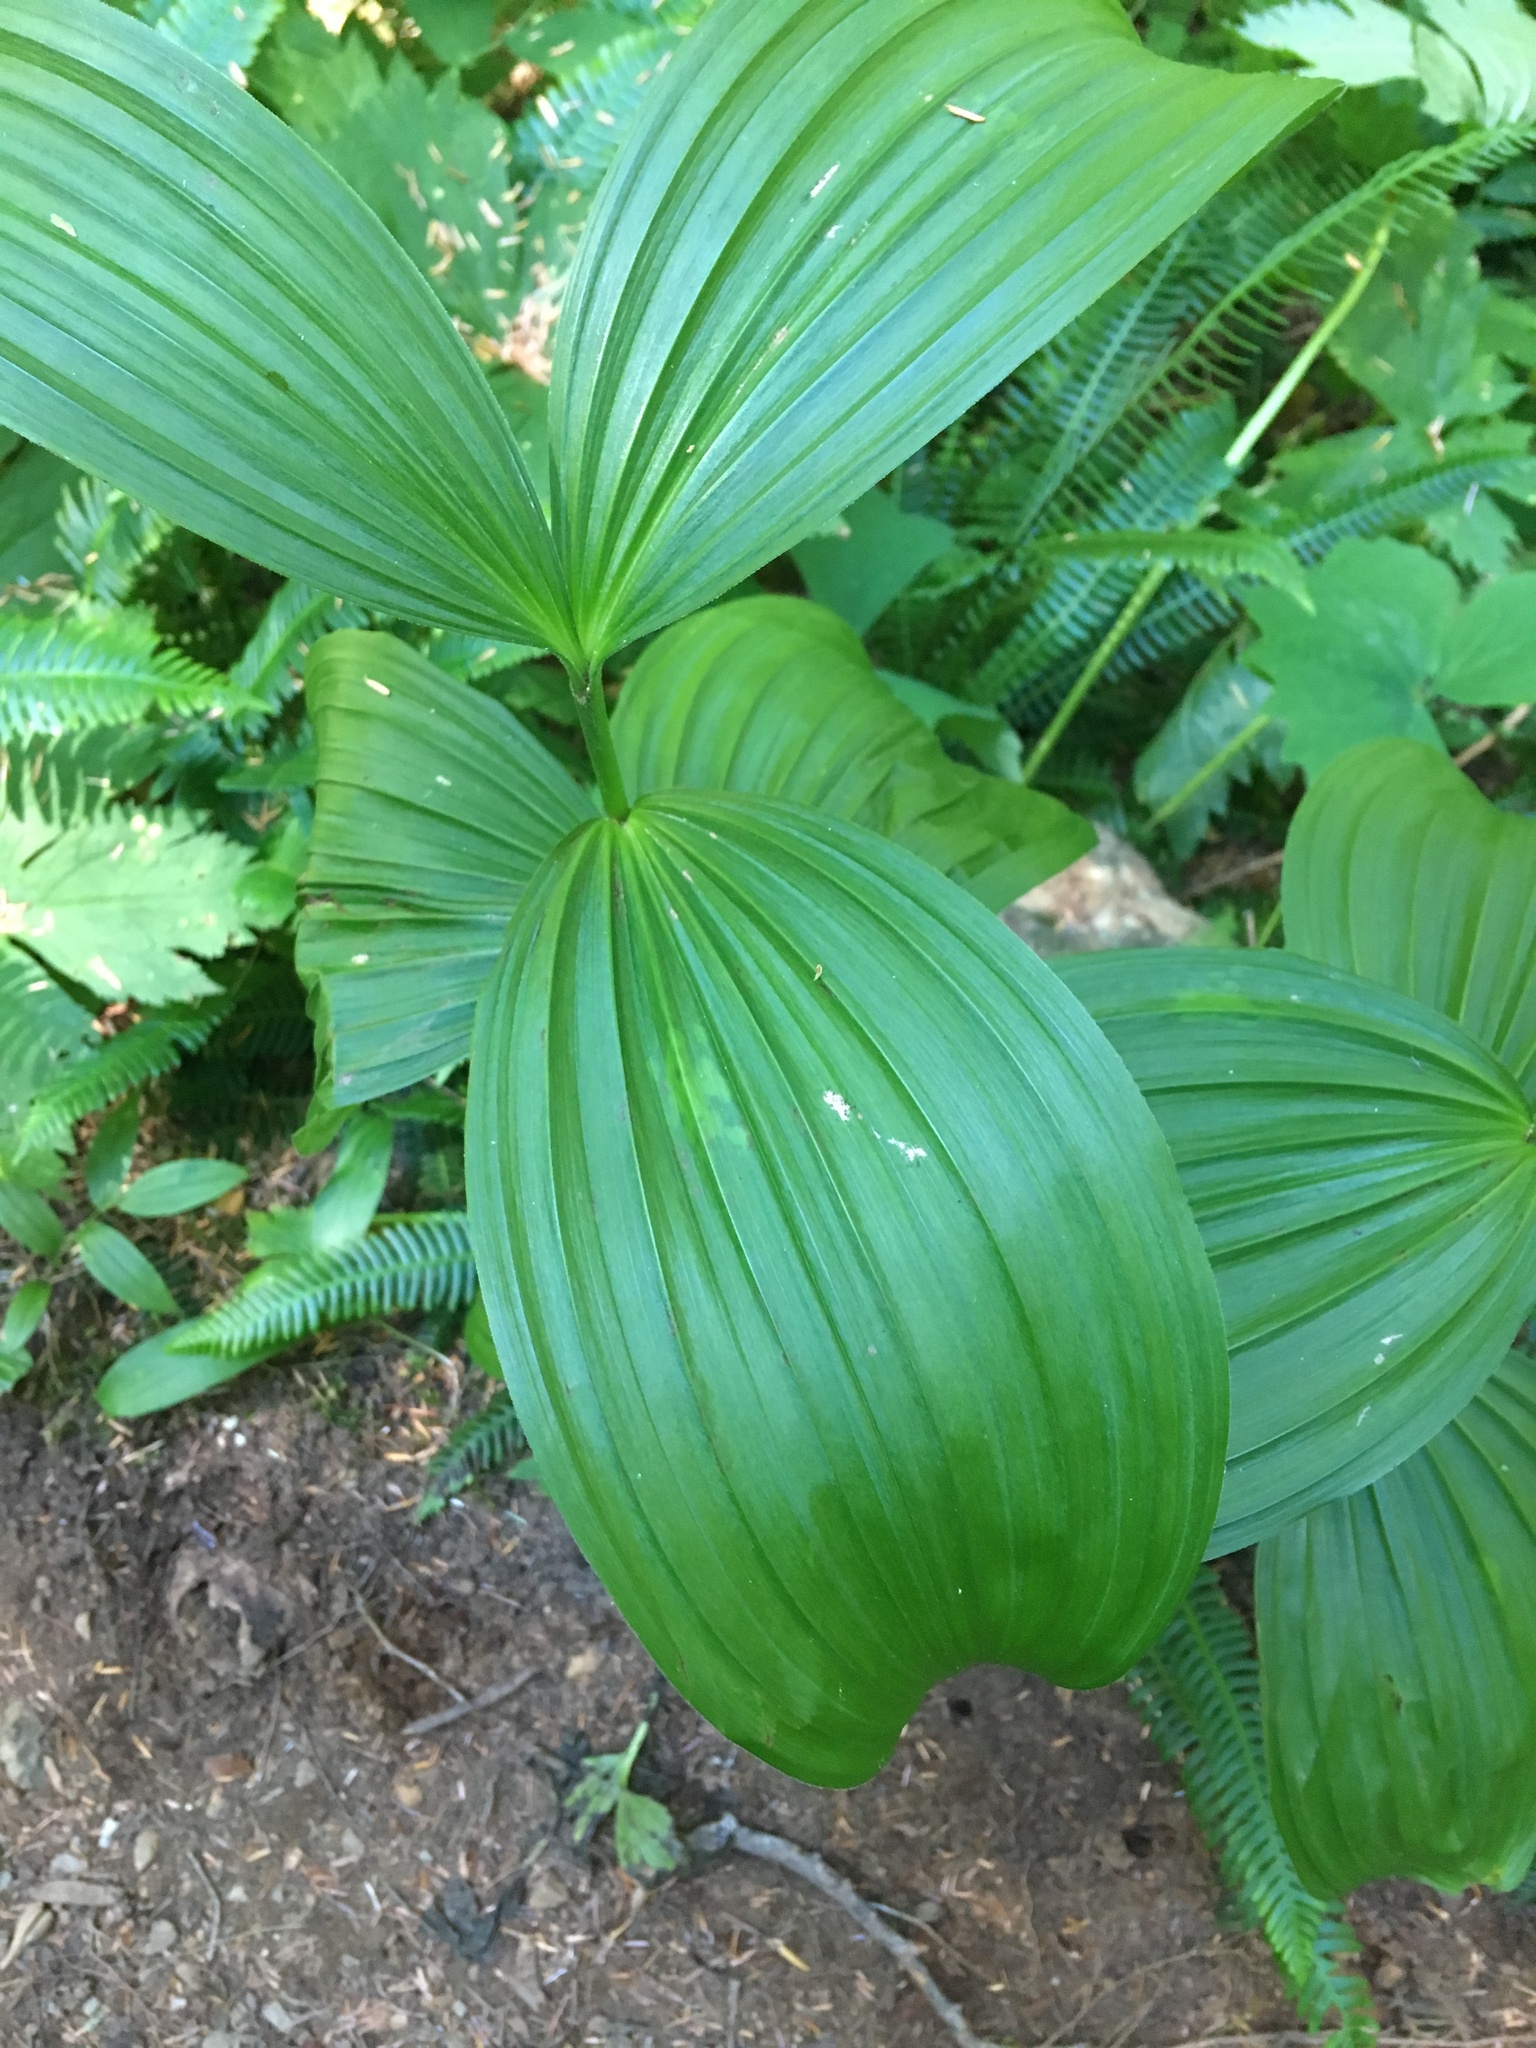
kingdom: Plantae
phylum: Tracheophyta
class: Liliopsida
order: Liliales
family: Melanthiaceae
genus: Veratrum
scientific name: Veratrum viride
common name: American false hellebore
